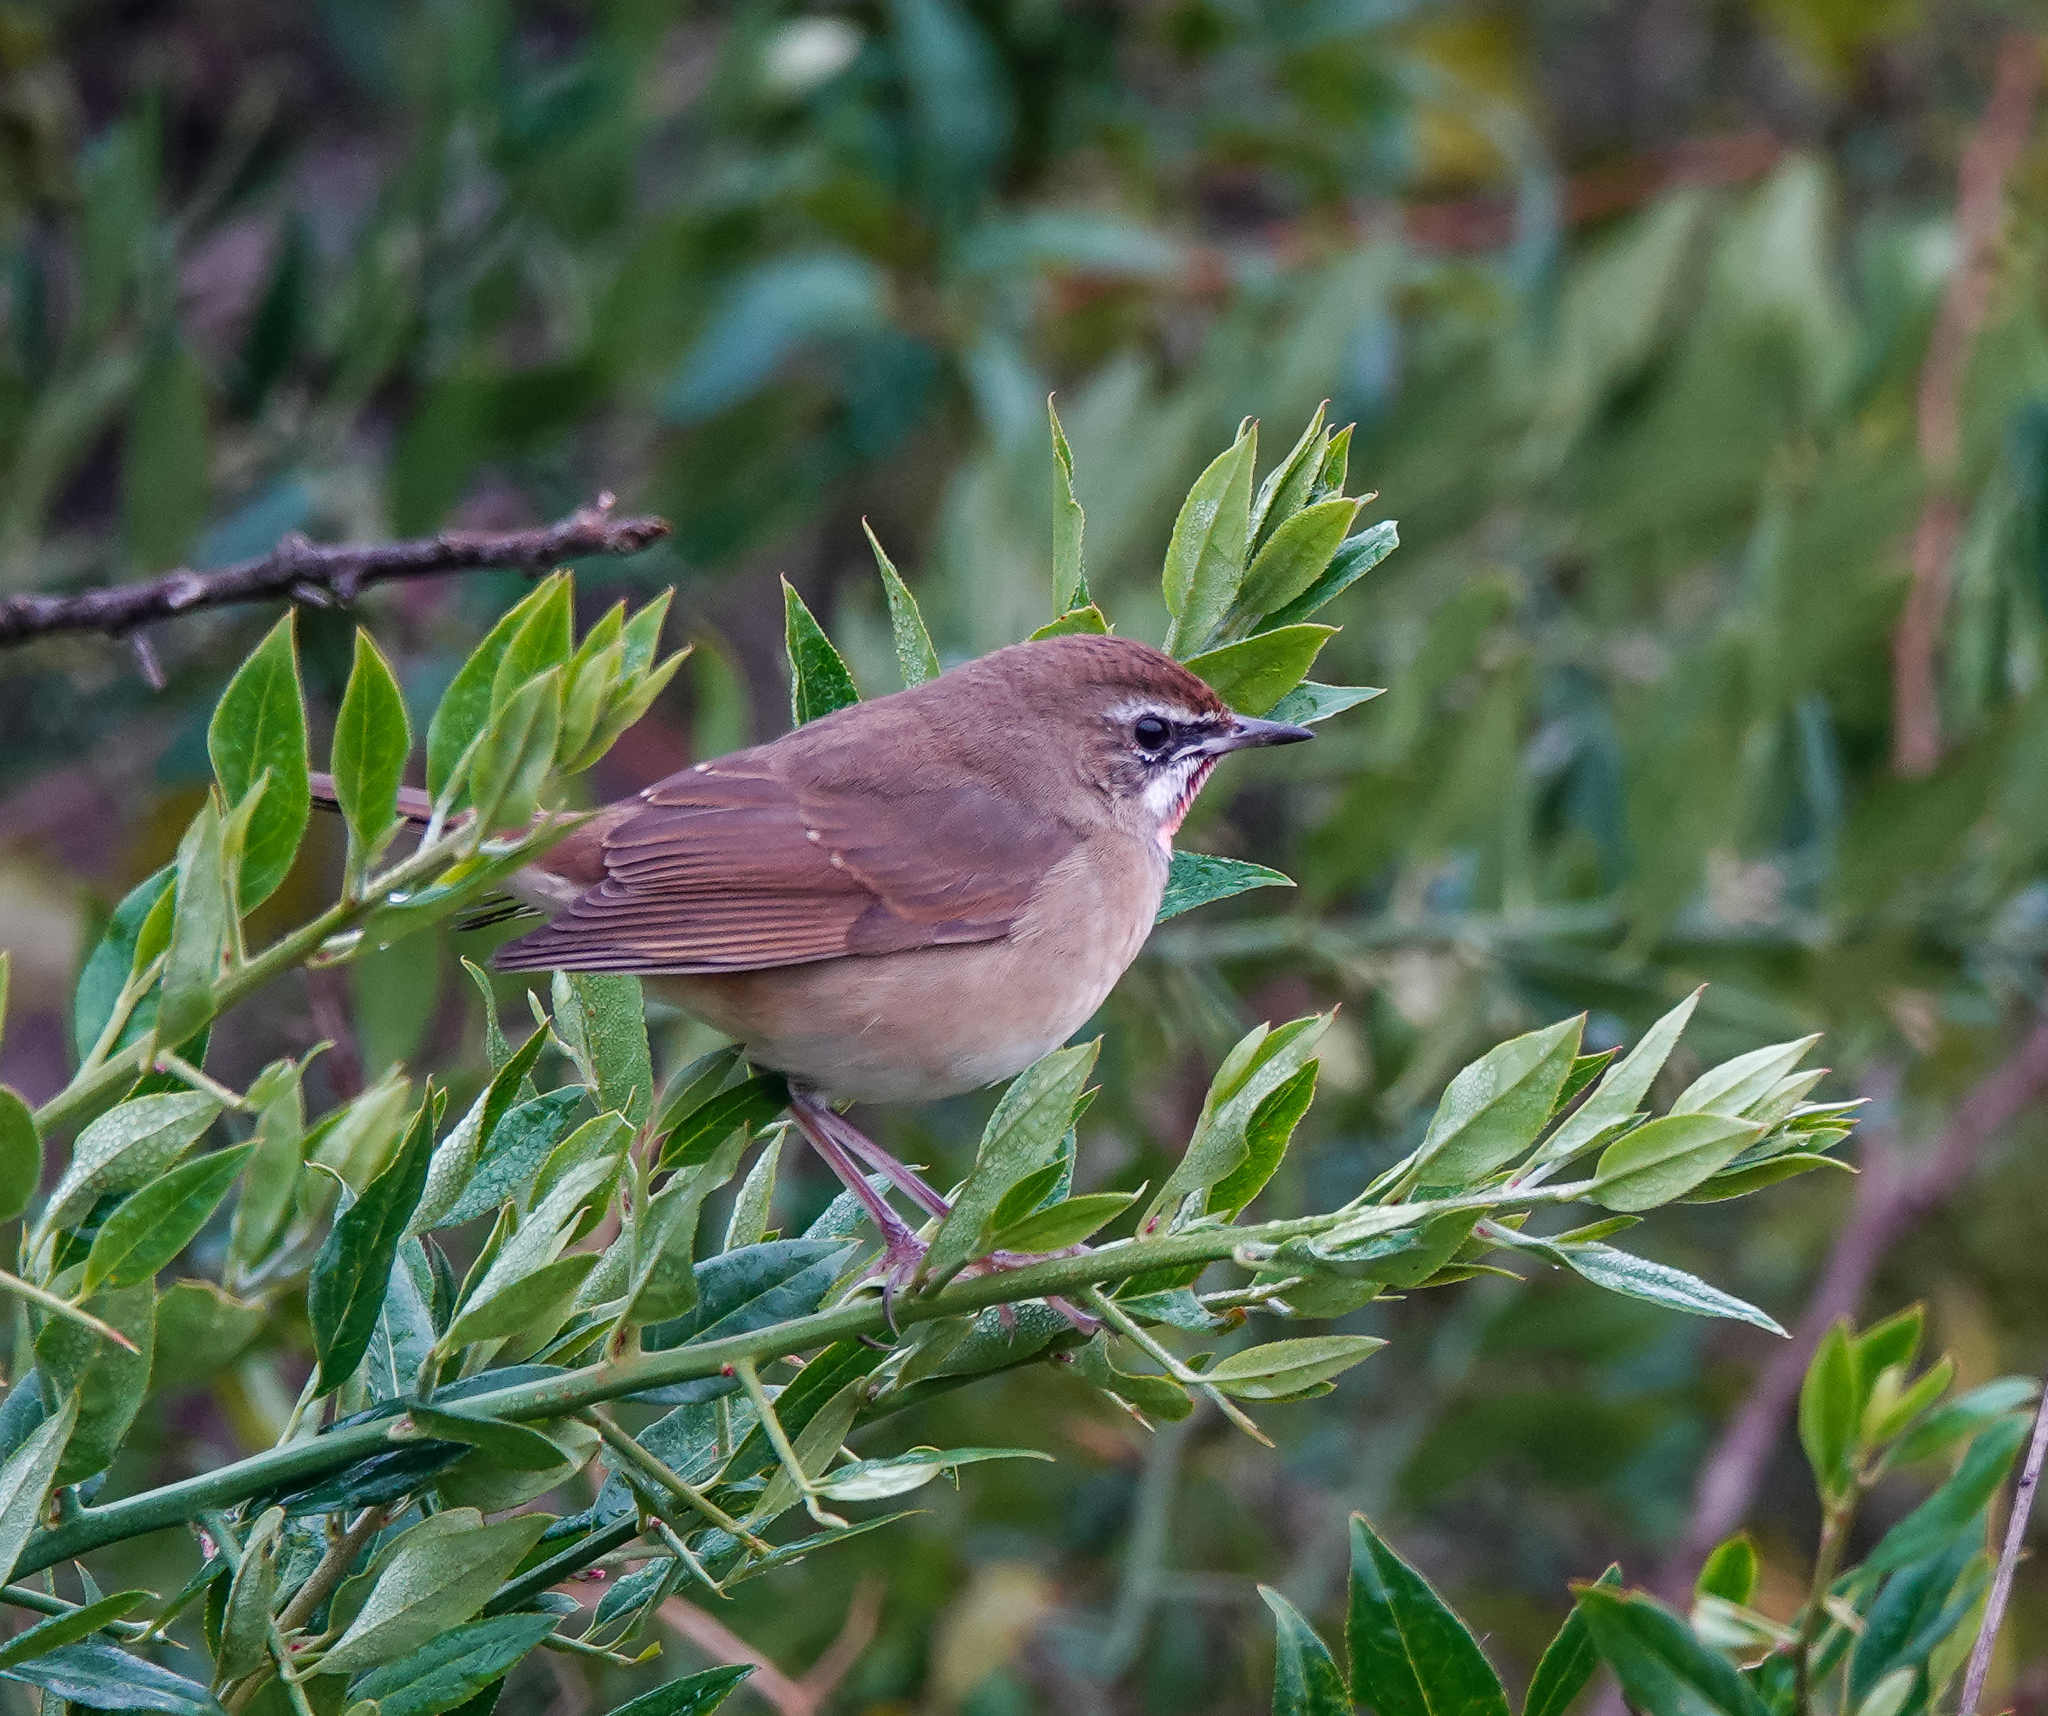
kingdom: Animalia
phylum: Chordata
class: Aves
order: Passeriformes
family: Muscicapidae
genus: Luscinia
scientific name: Luscinia calliope
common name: Siberian rubythroat
